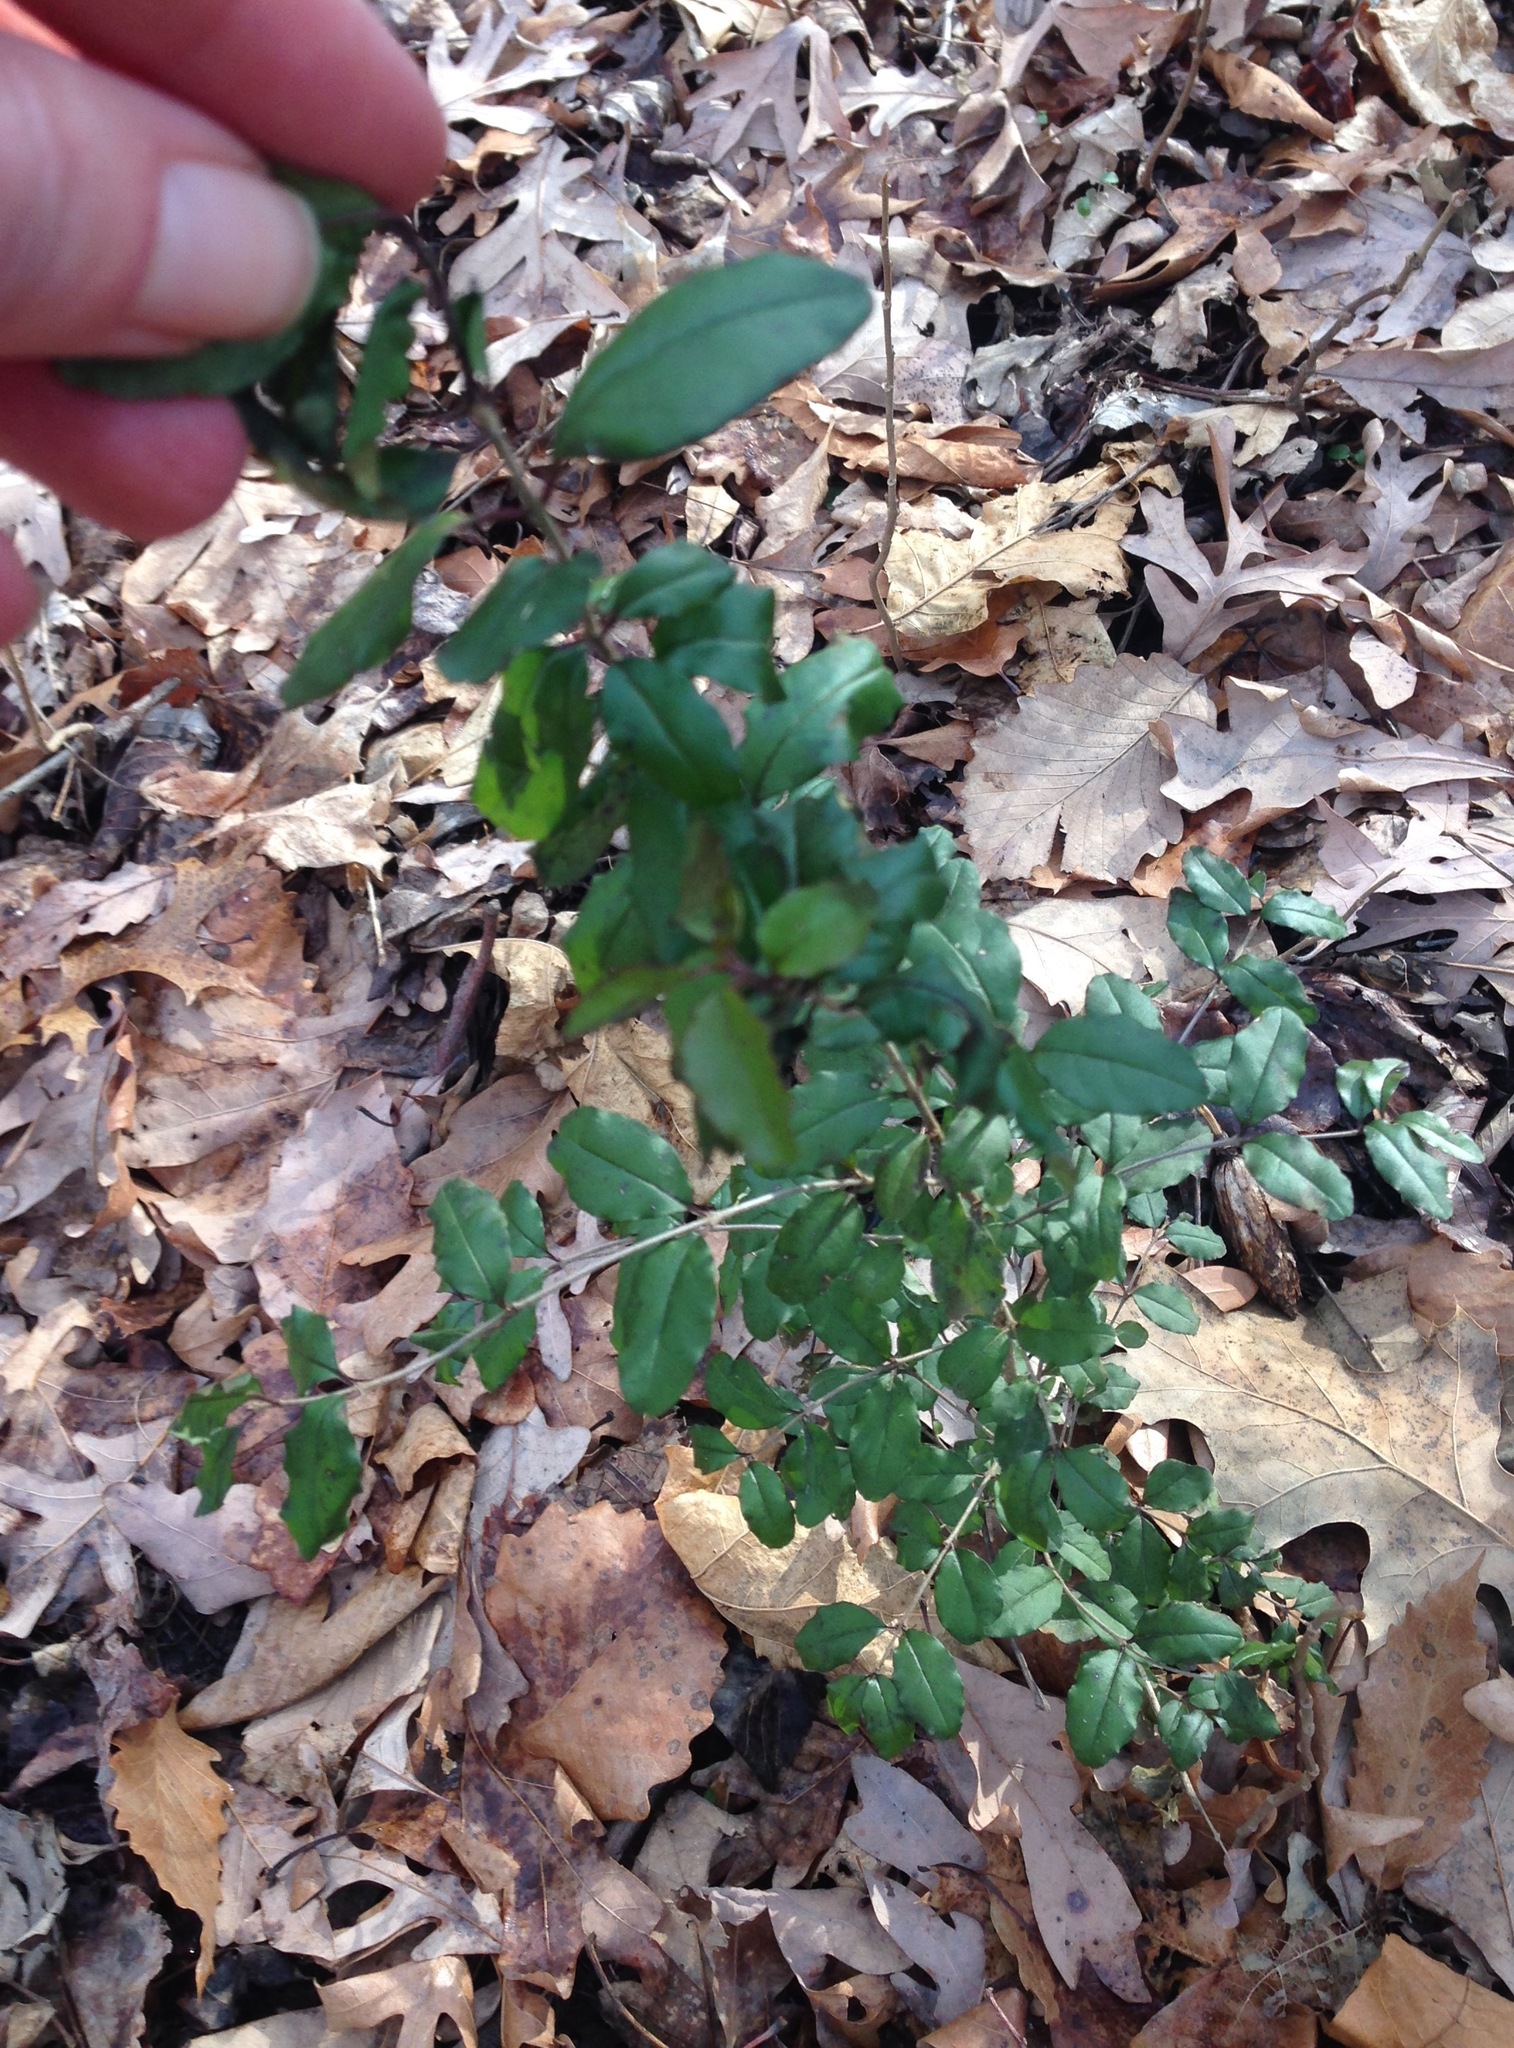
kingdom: Plantae
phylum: Tracheophyta
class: Magnoliopsida
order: Lamiales
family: Oleaceae
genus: Ligustrum
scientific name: Ligustrum sinense
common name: Chinese privet
